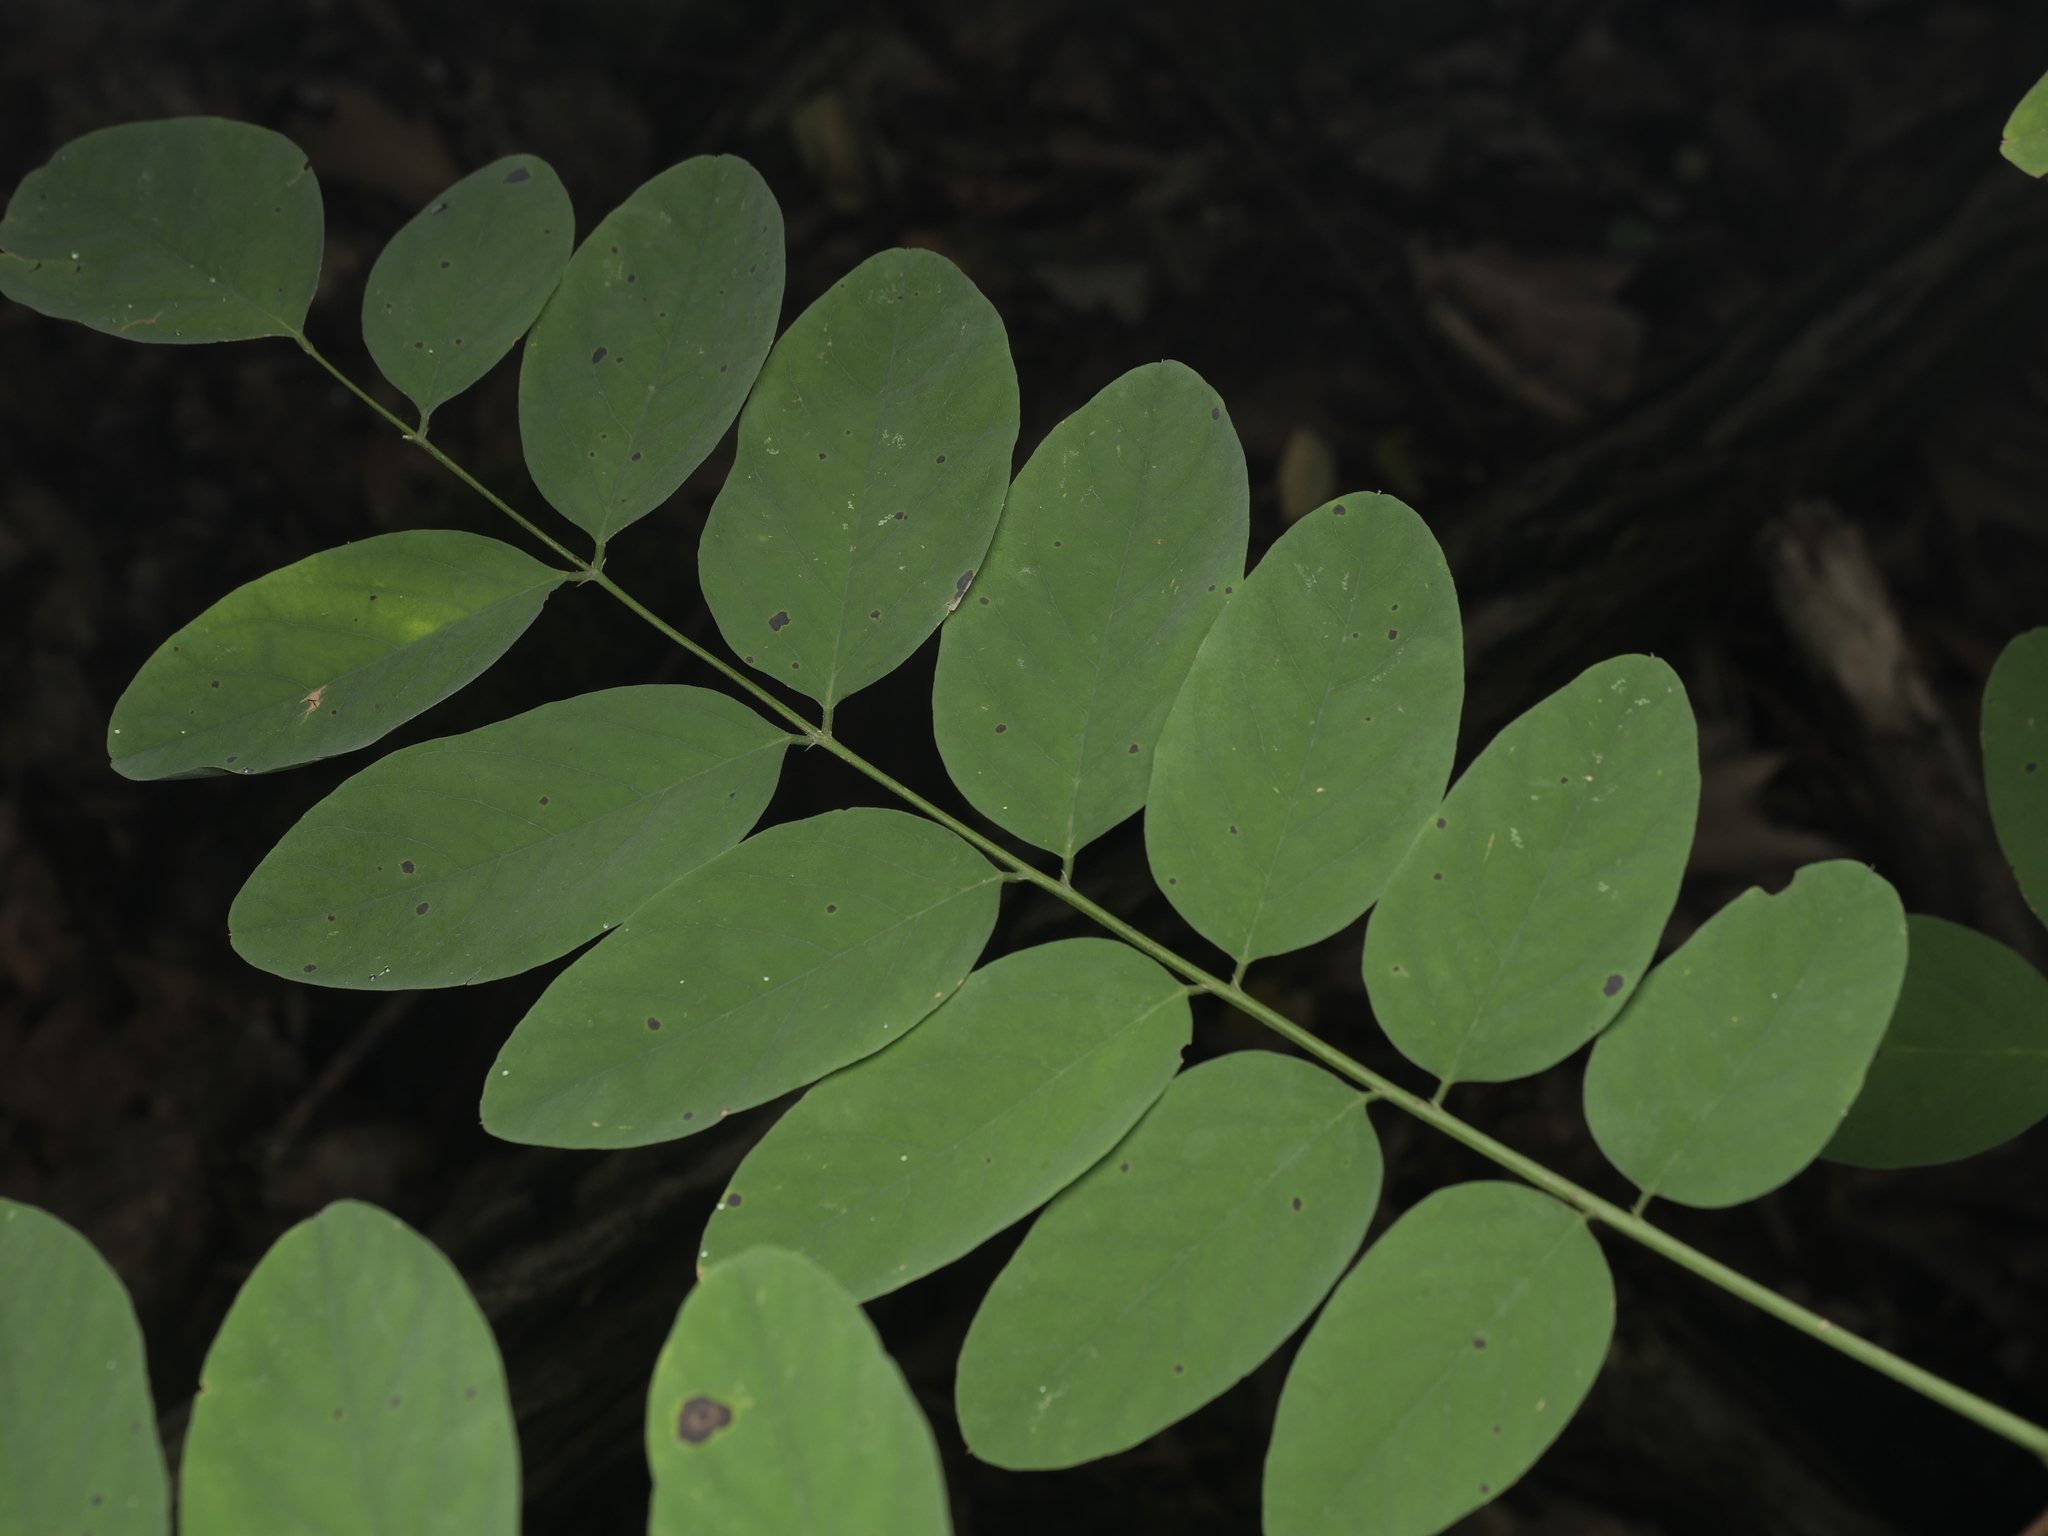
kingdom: Plantae
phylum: Tracheophyta
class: Magnoliopsida
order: Fabales
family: Fabaceae
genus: Robinia
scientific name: Robinia pseudoacacia
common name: Black locust
